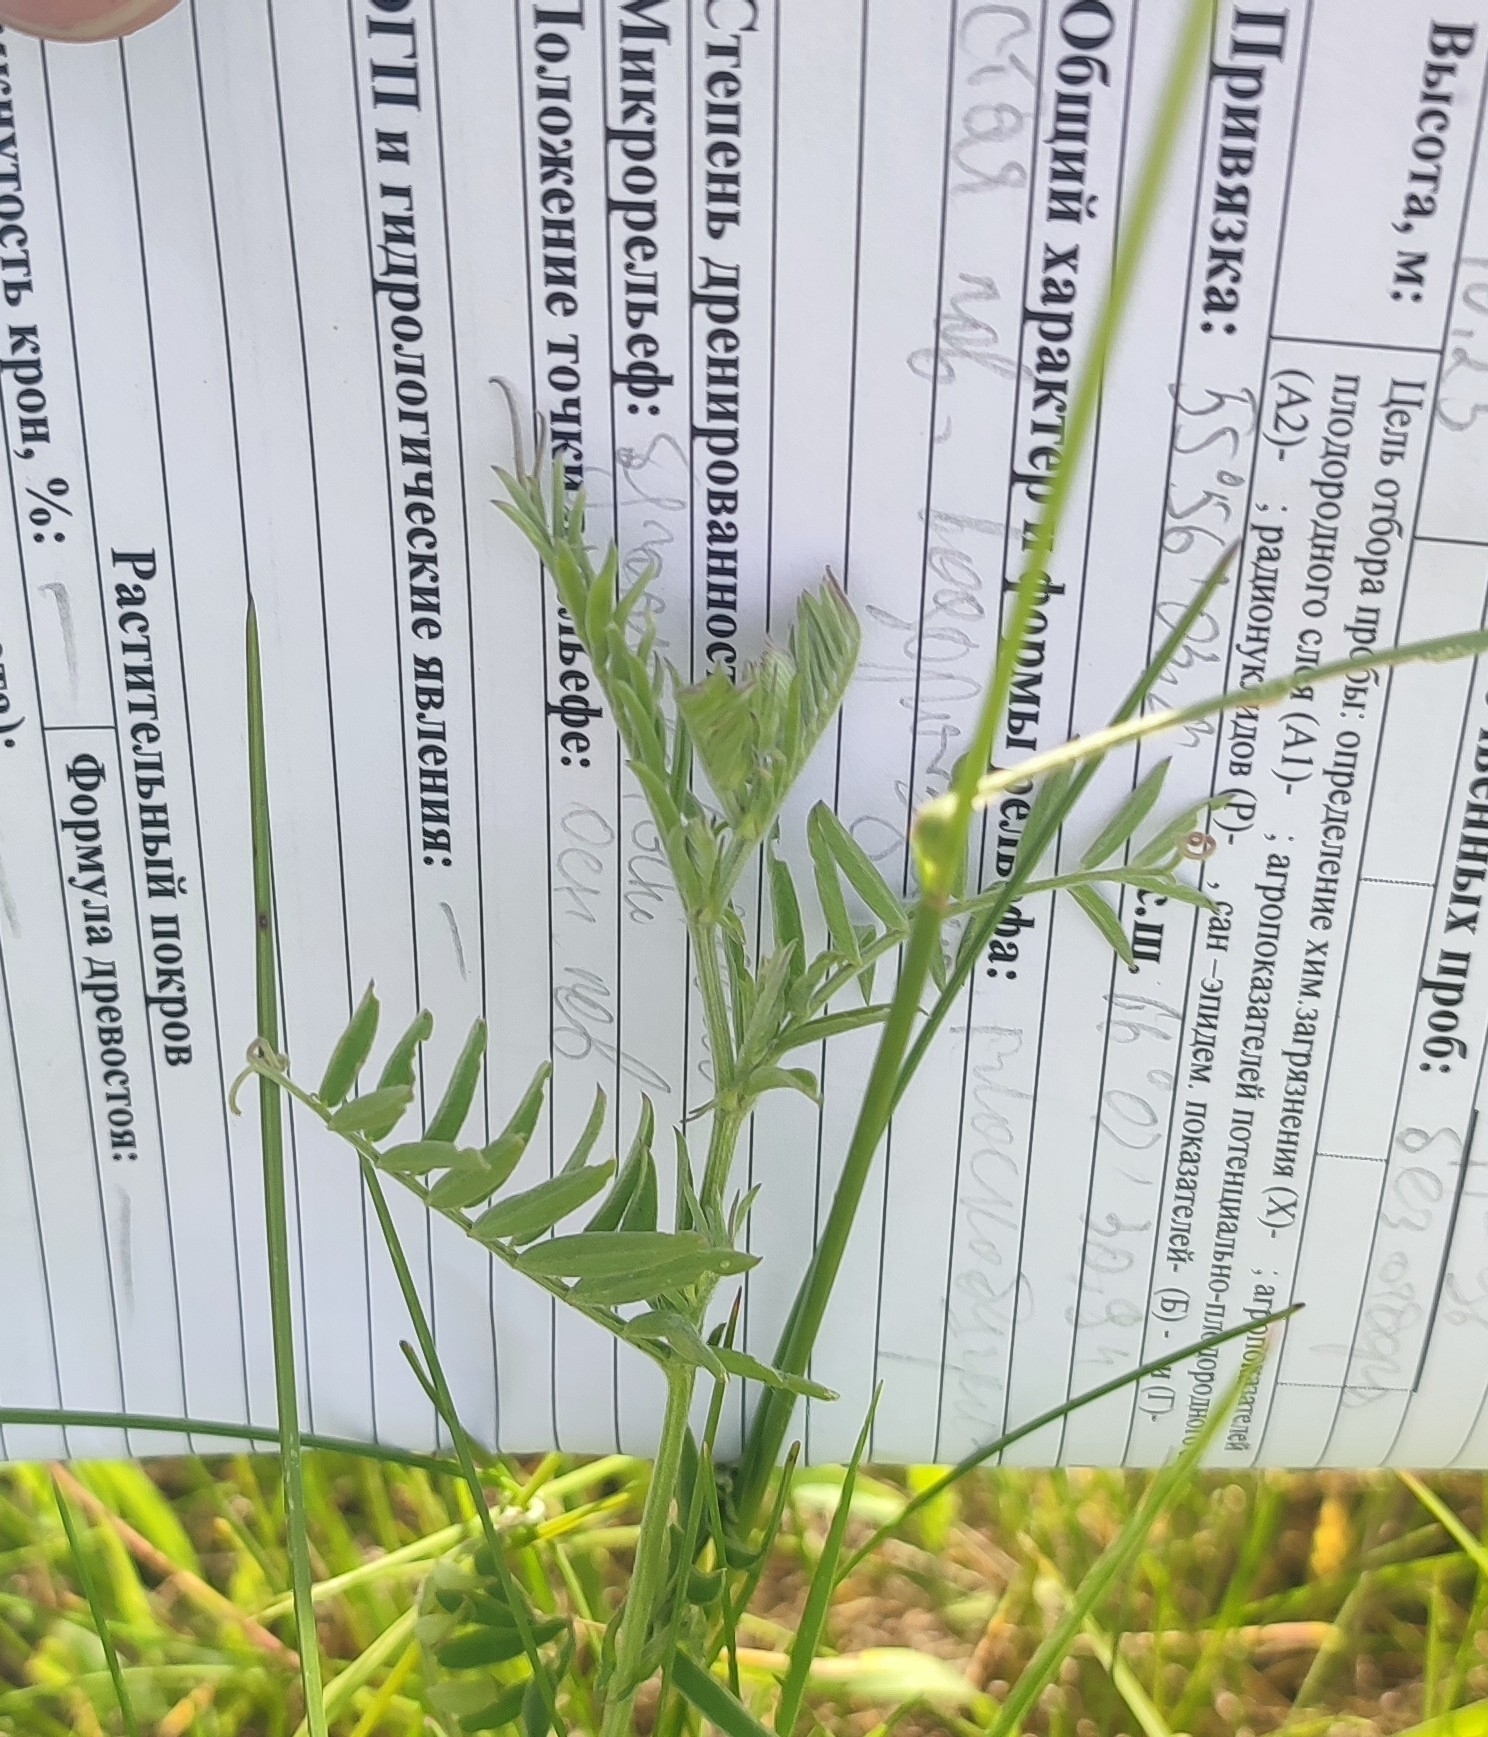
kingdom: Plantae
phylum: Tracheophyta
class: Magnoliopsida
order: Fabales
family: Fabaceae
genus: Vicia
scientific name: Vicia cracca
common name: Bird vetch
